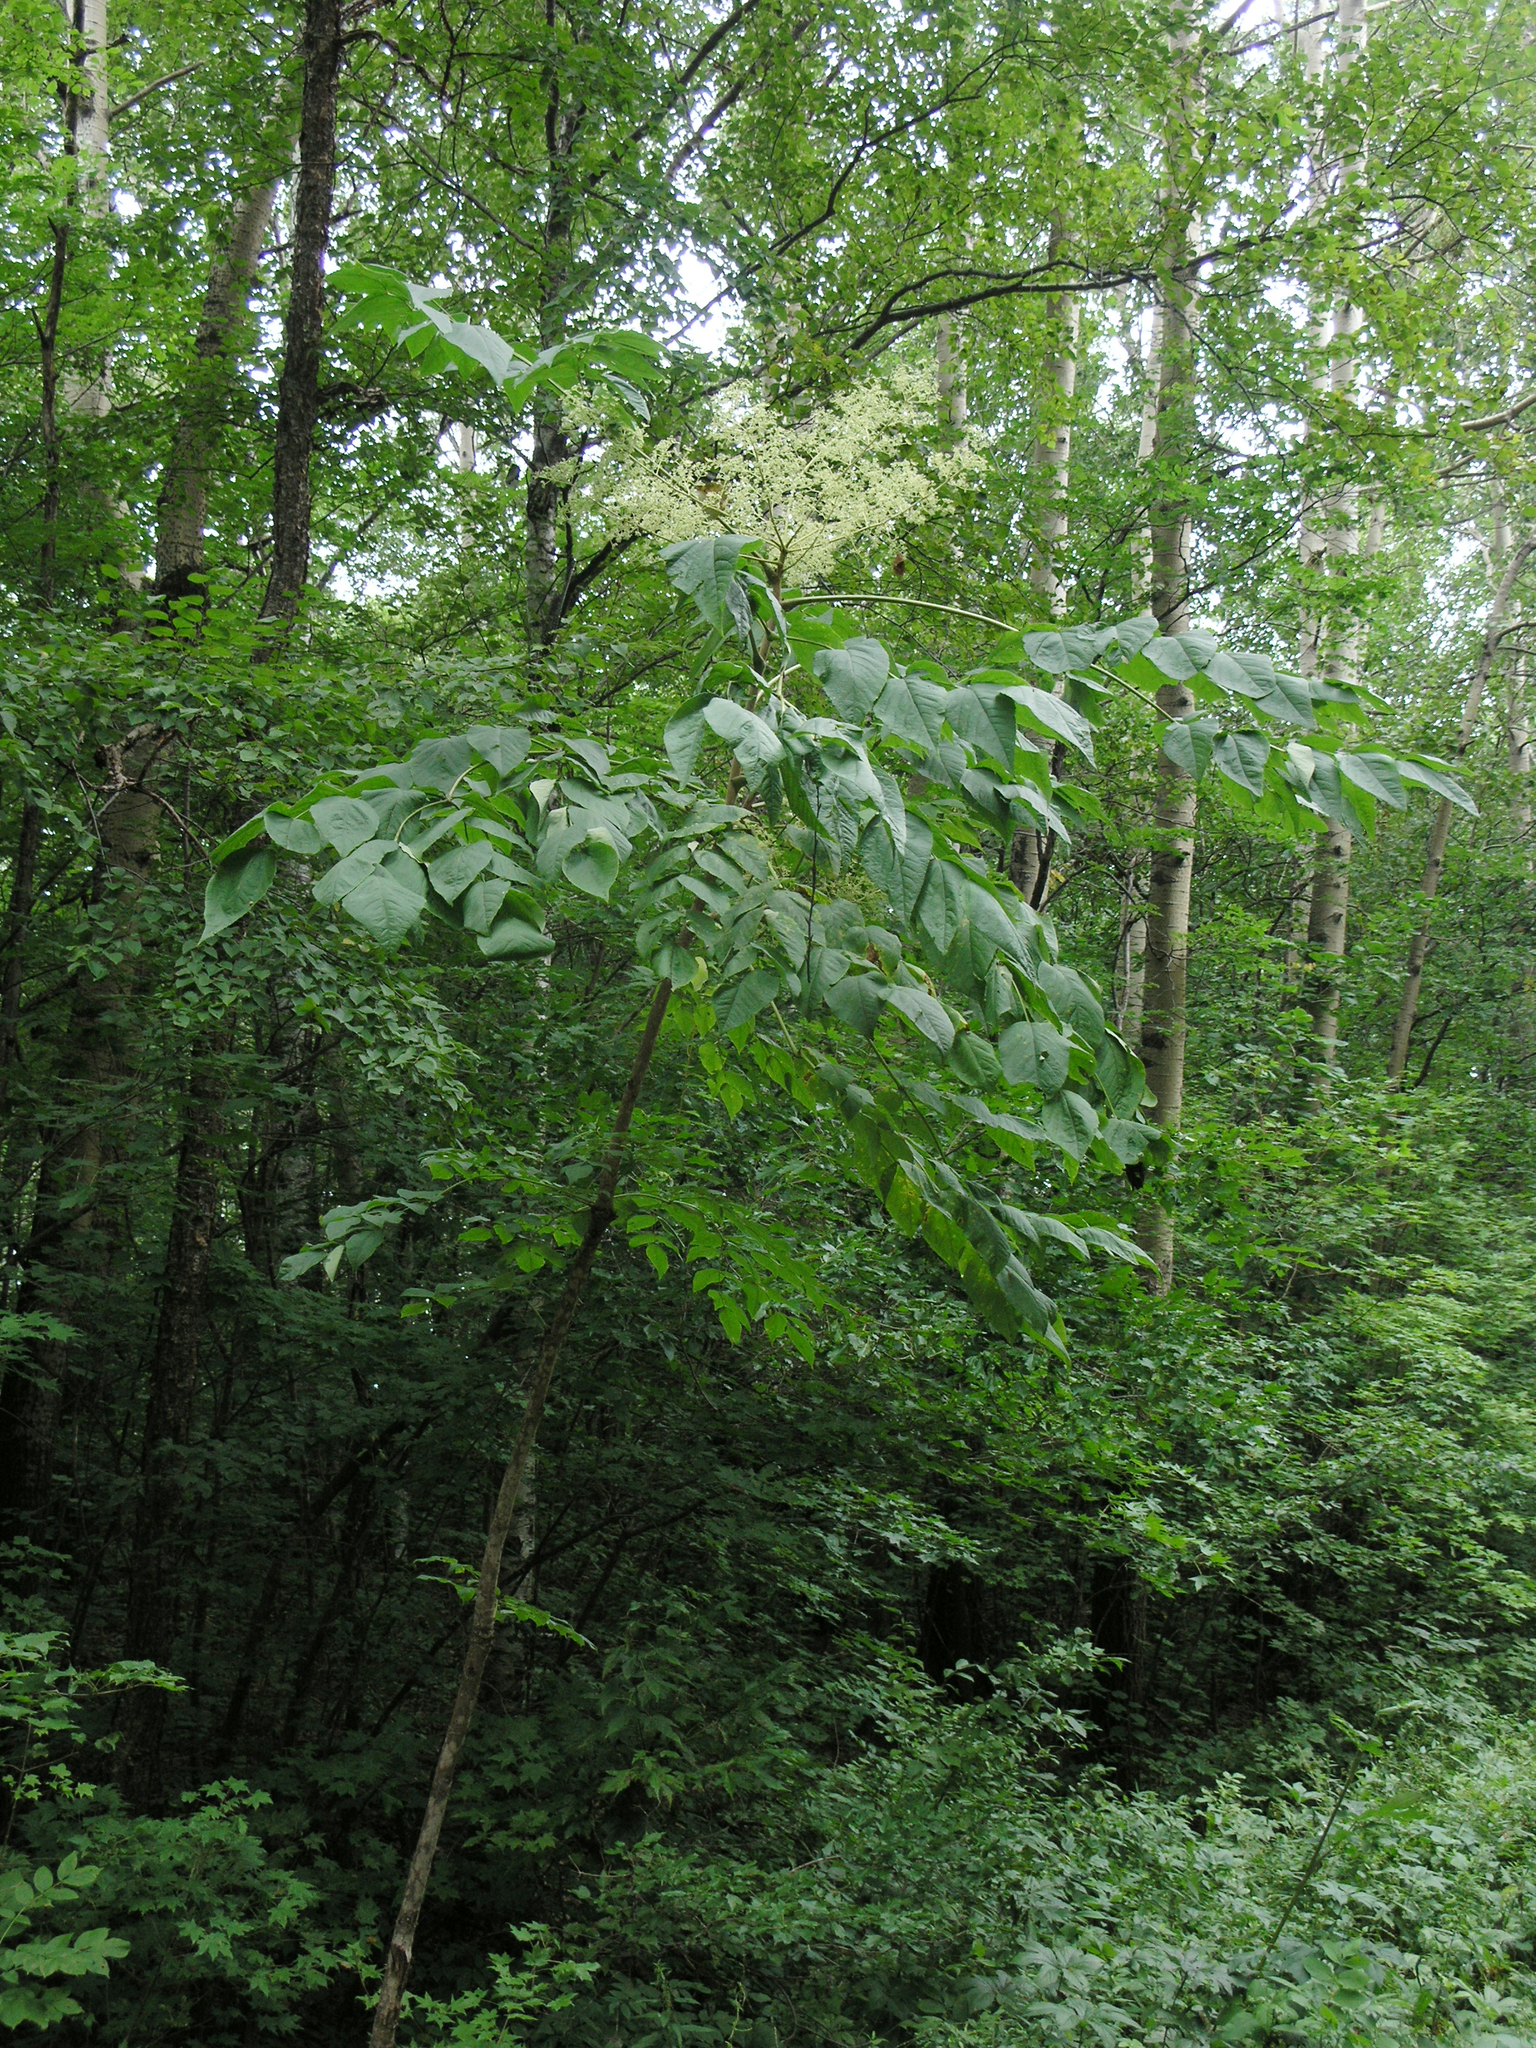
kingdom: Plantae
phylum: Tracheophyta
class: Magnoliopsida
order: Apiales
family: Araliaceae
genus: Aralia
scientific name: Aralia elata
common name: Japanese angelica-tree
